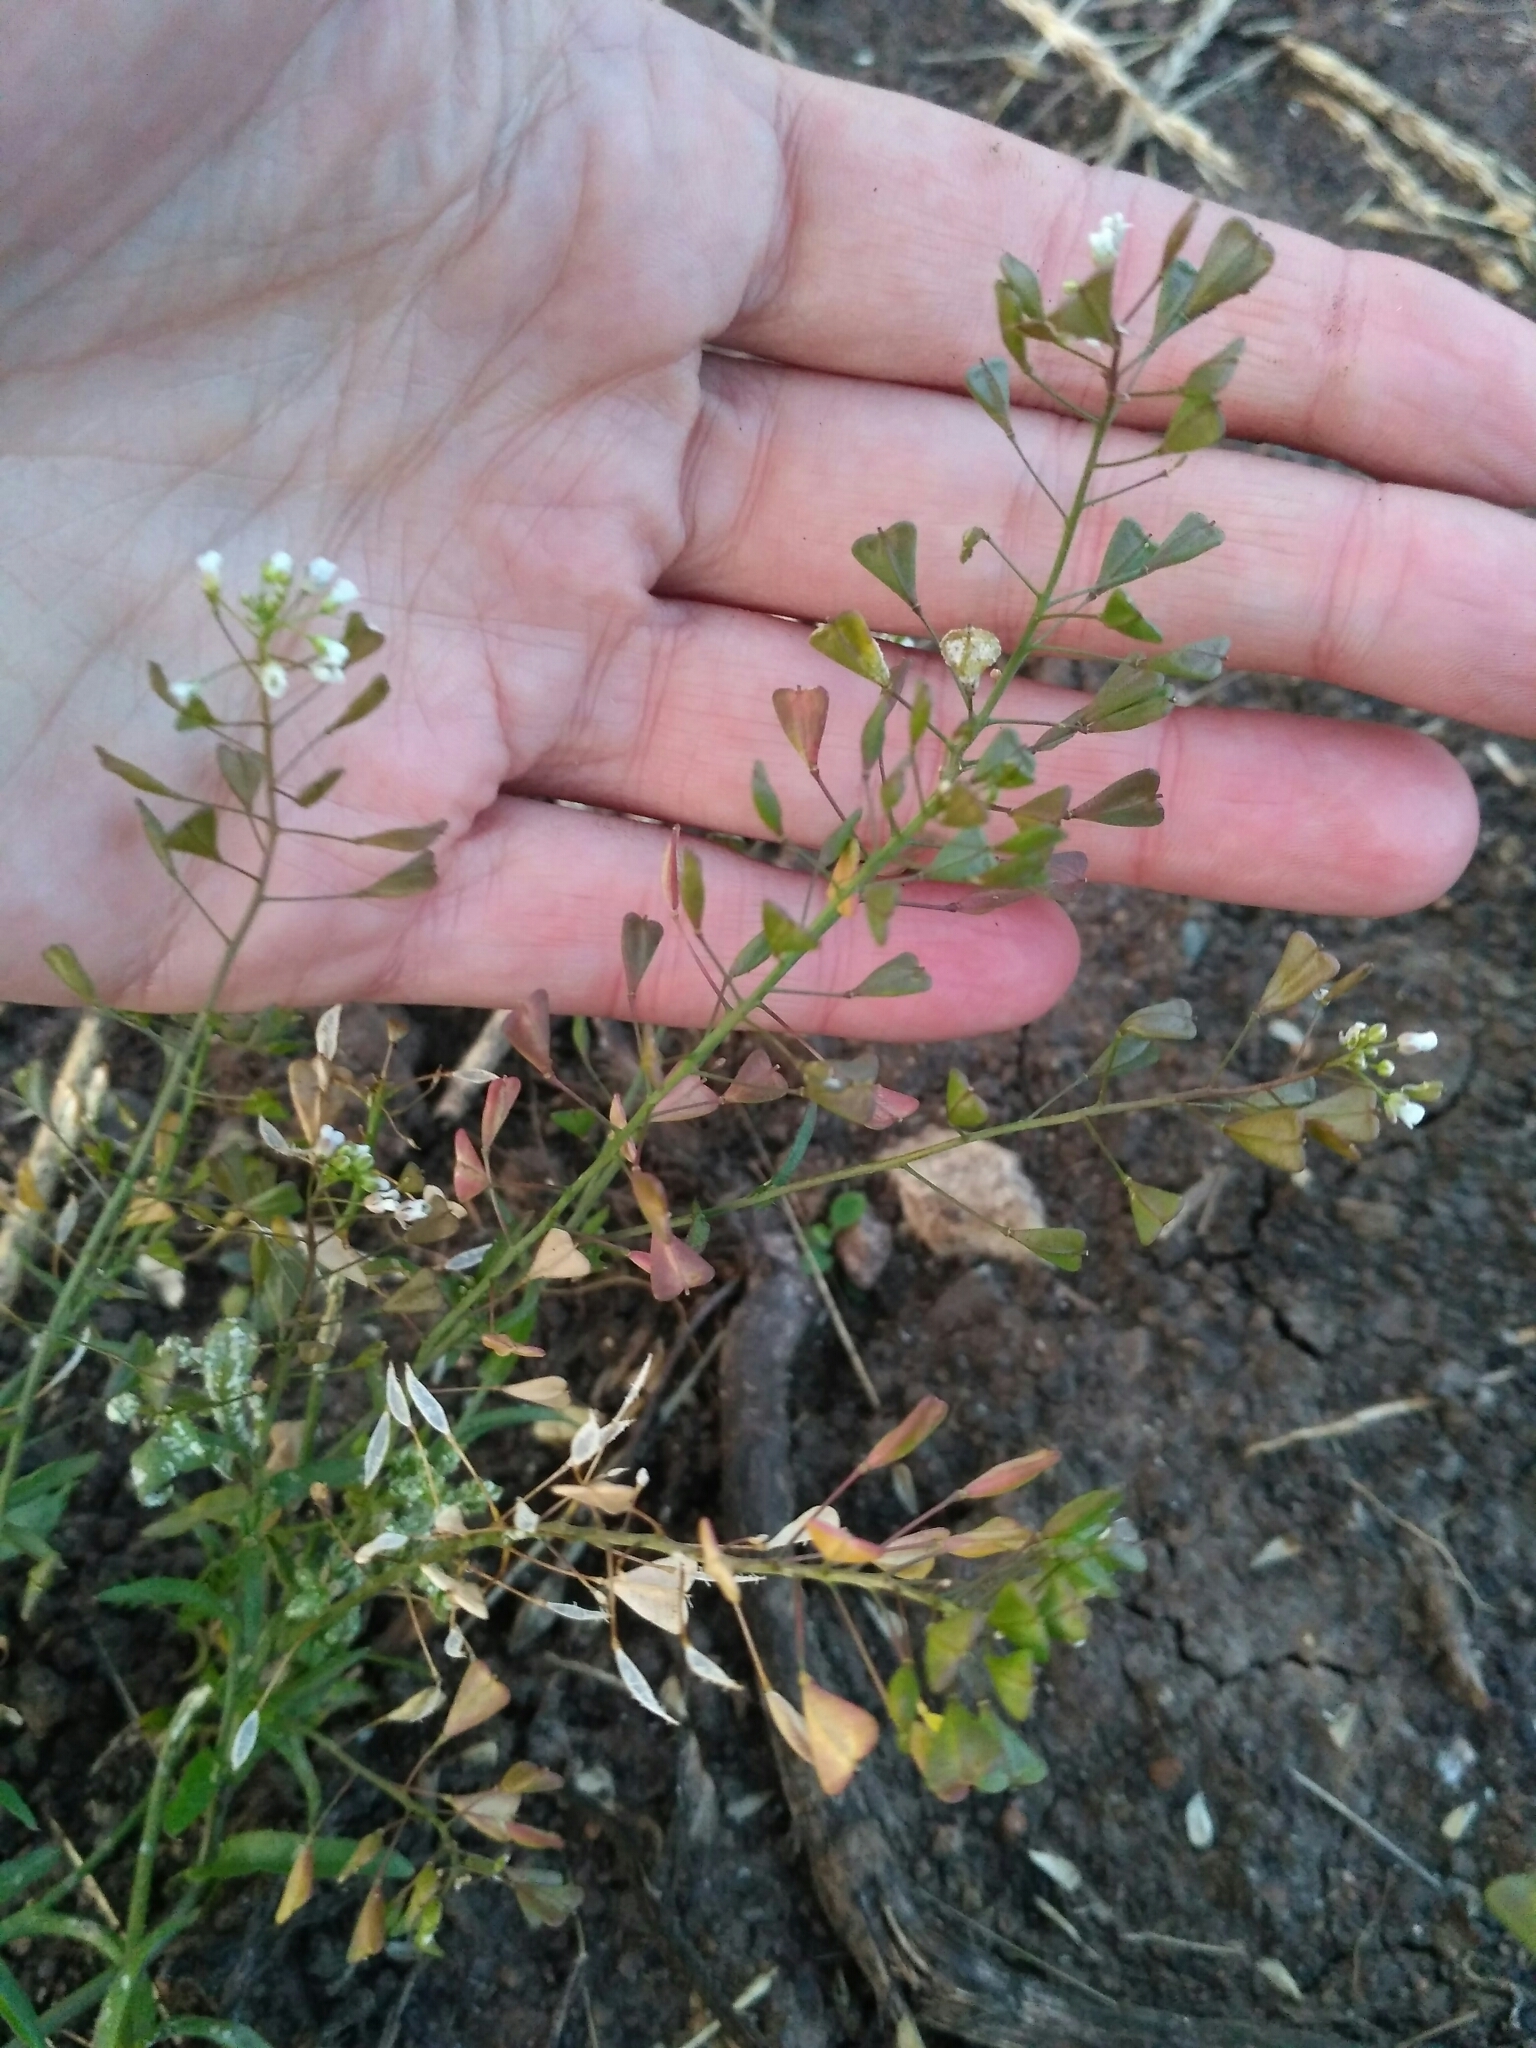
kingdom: Plantae
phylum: Tracheophyta
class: Magnoliopsida
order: Brassicales
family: Brassicaceae
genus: Capsella
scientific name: Capsella bursa-pastoris
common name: Shepherd's purse
